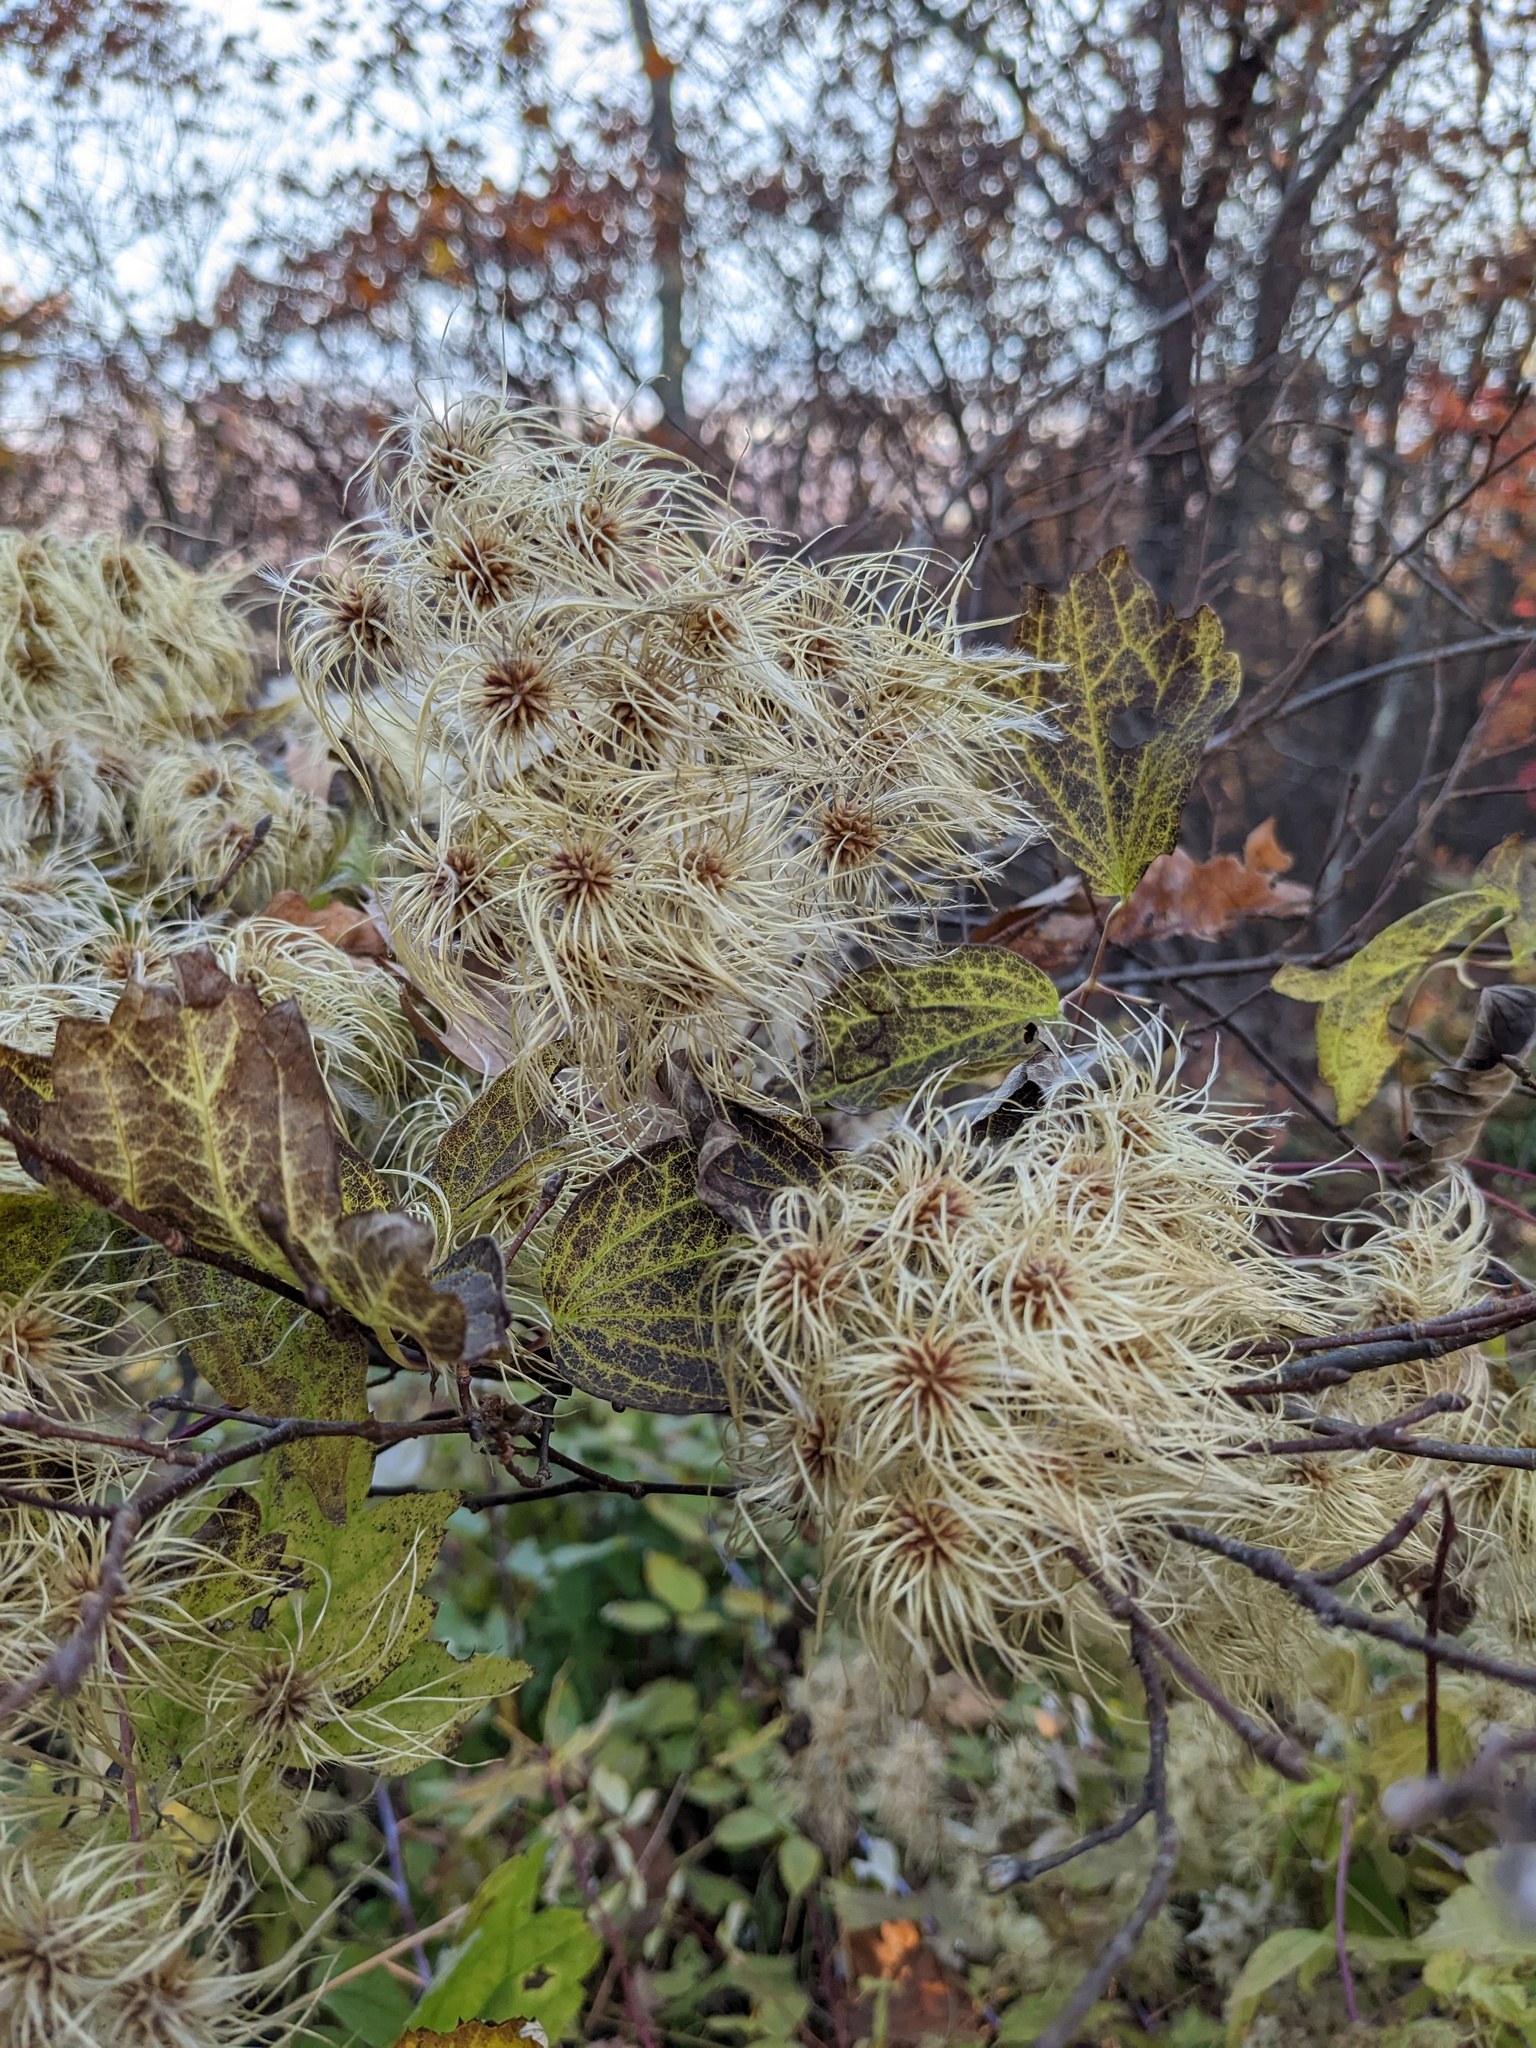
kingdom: Plantae
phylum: Tracheophyta
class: Magnoliopsida
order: Ranunculales
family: Ranunculaceae
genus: Clematis
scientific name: Clematis virginiana
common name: Virgin's-bower
